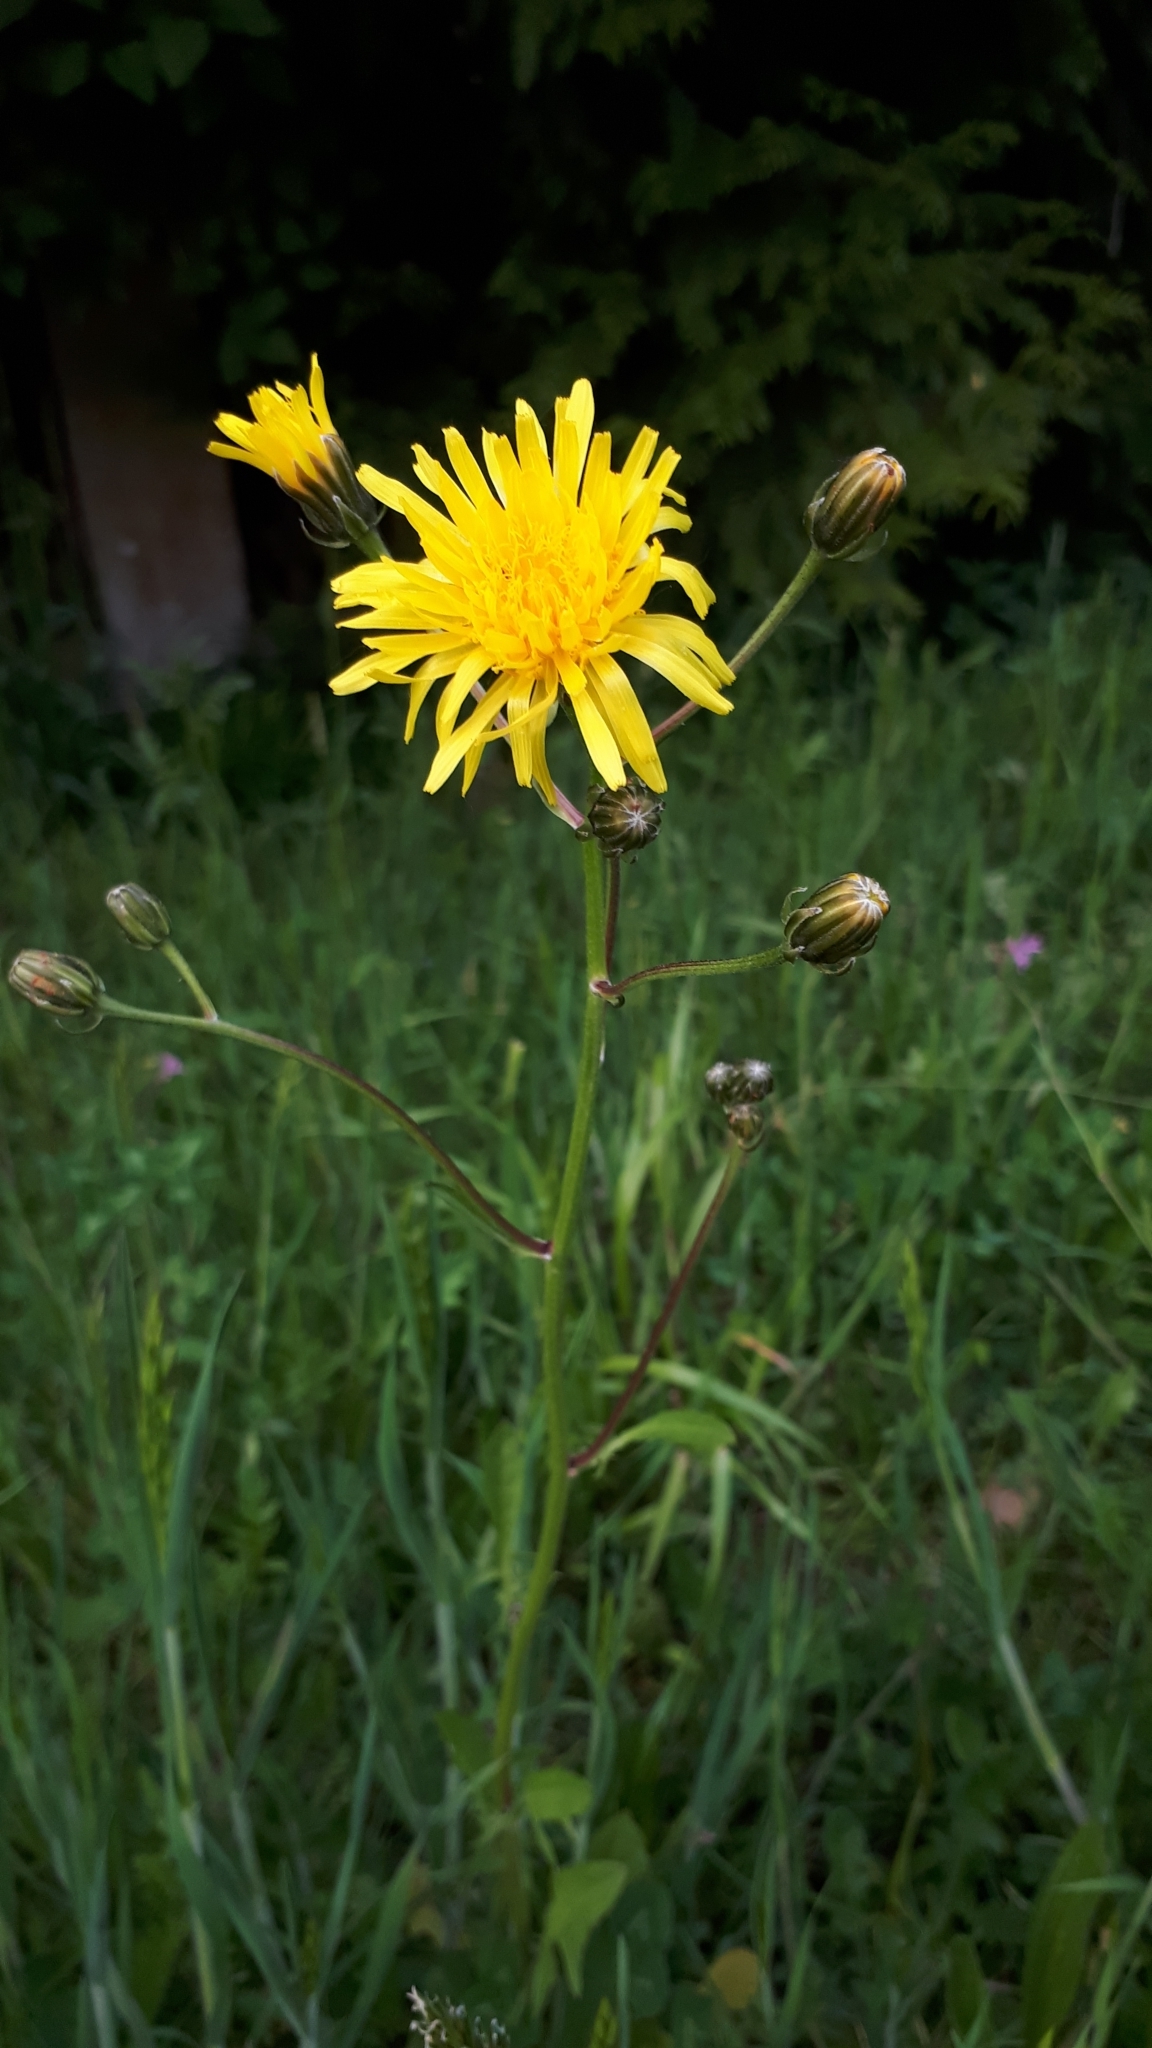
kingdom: Plantae
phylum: Tracheophyta
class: Magnoliopsida
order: Asterales
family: Asteraceae
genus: Picris
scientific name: Picris hieracioides
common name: Hawkweed oxtongue
